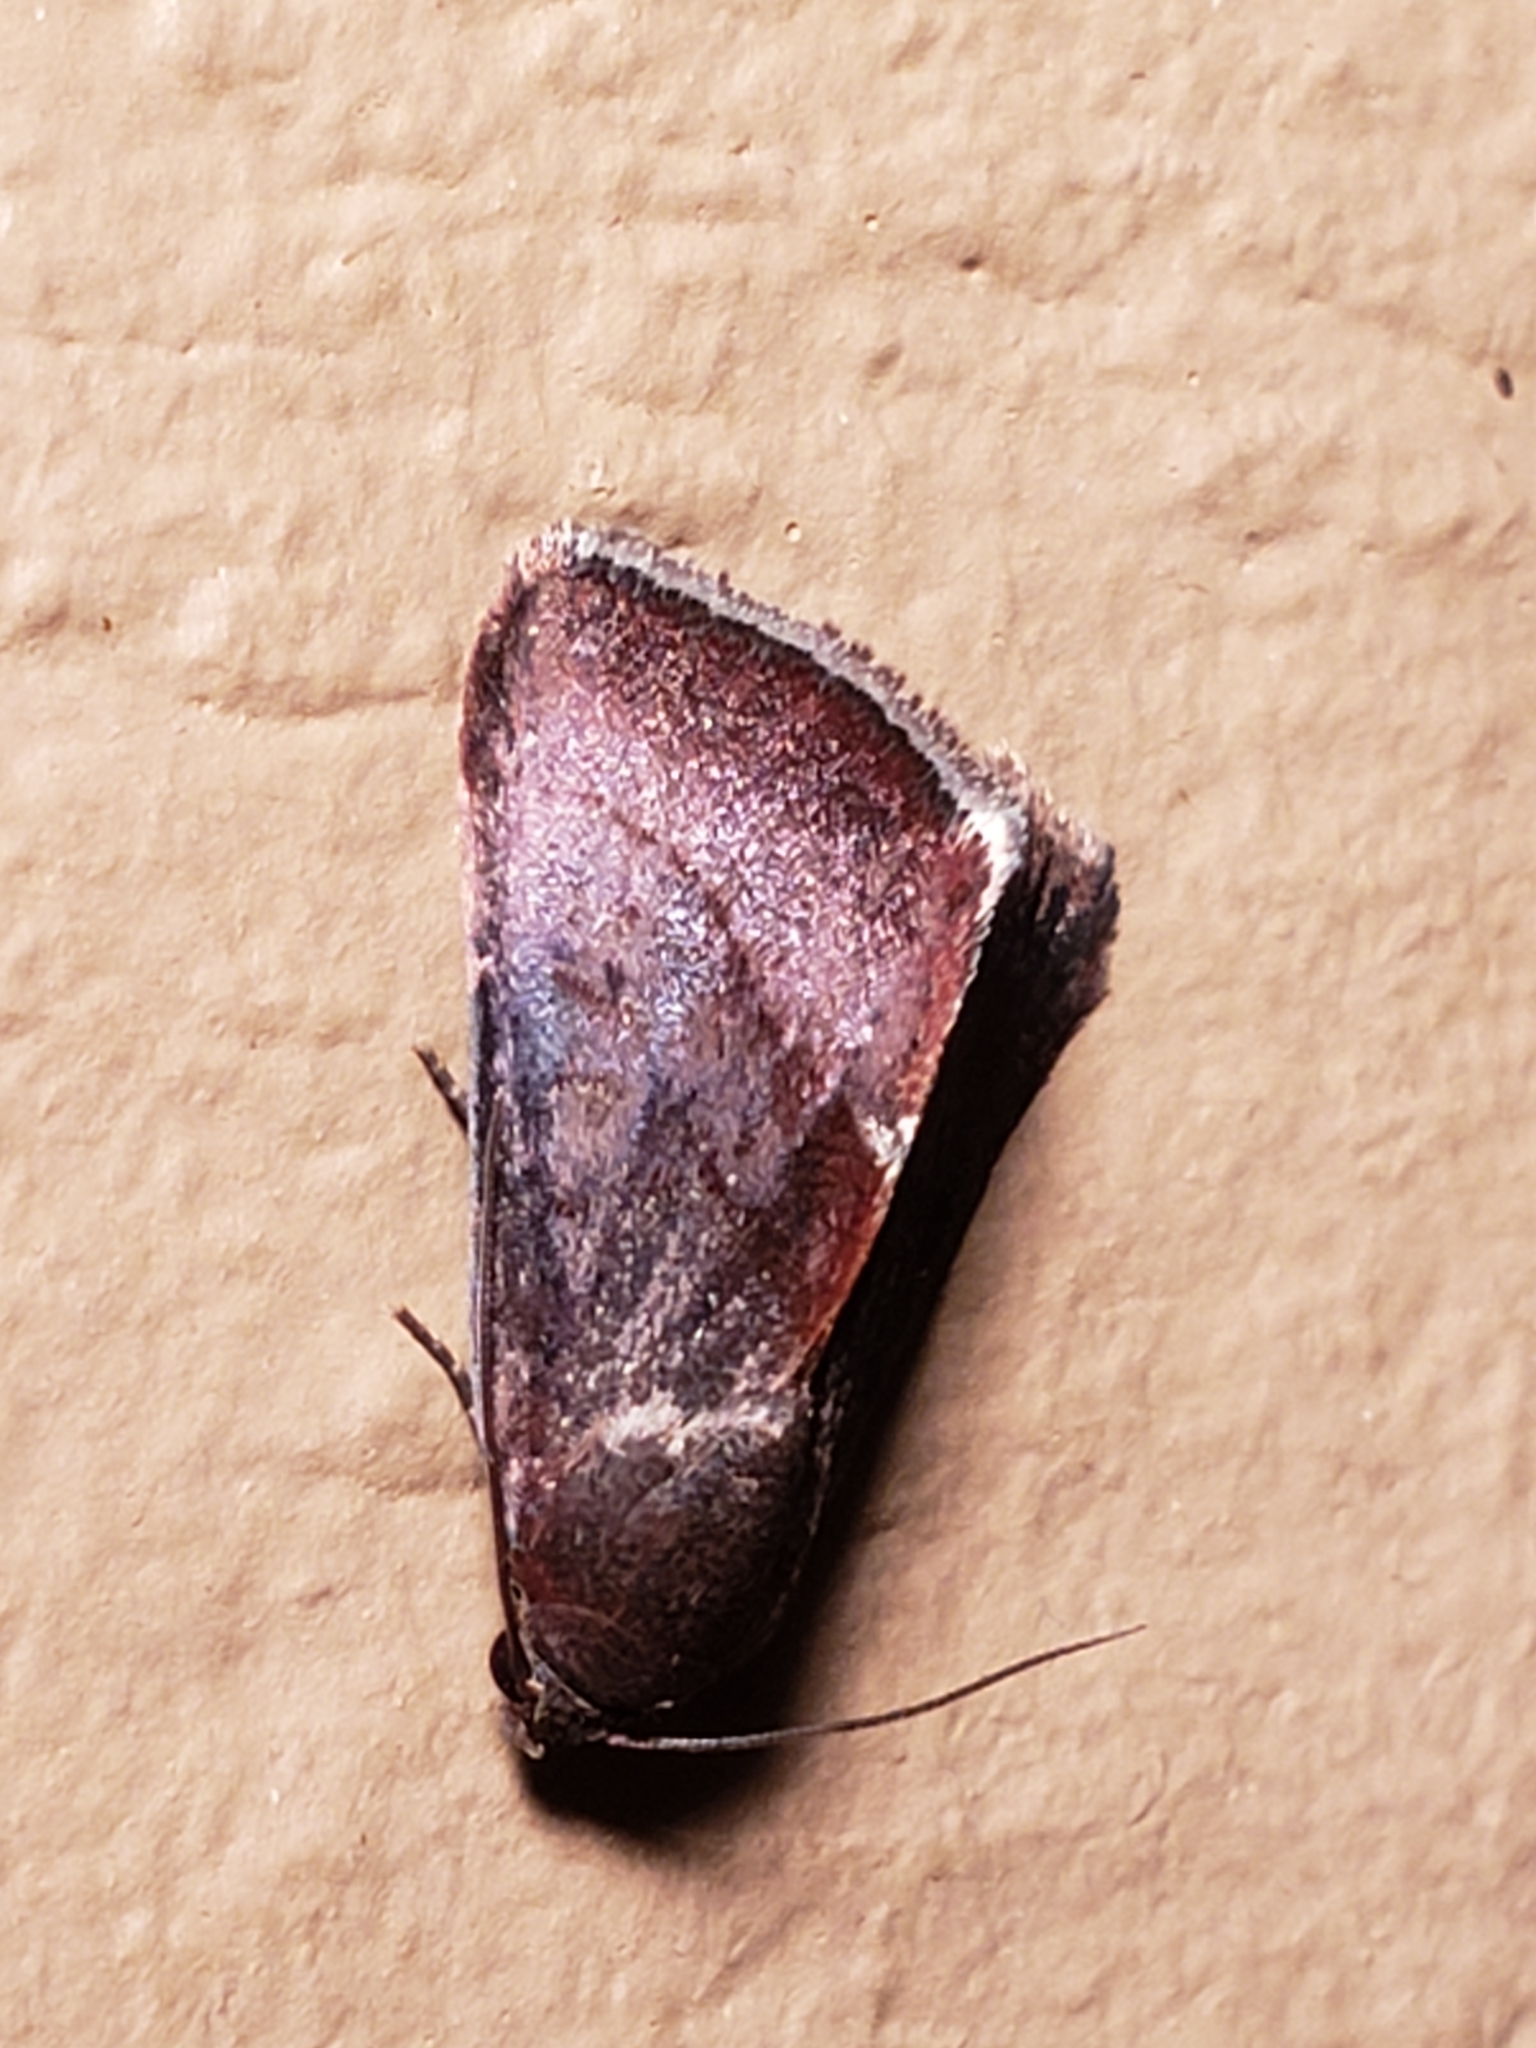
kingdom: Animalia
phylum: Arthropoda
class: Insecta
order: Lepidoptera
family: Noctuidae
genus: Galgula
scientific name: Galgula partita
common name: Wedgeling
